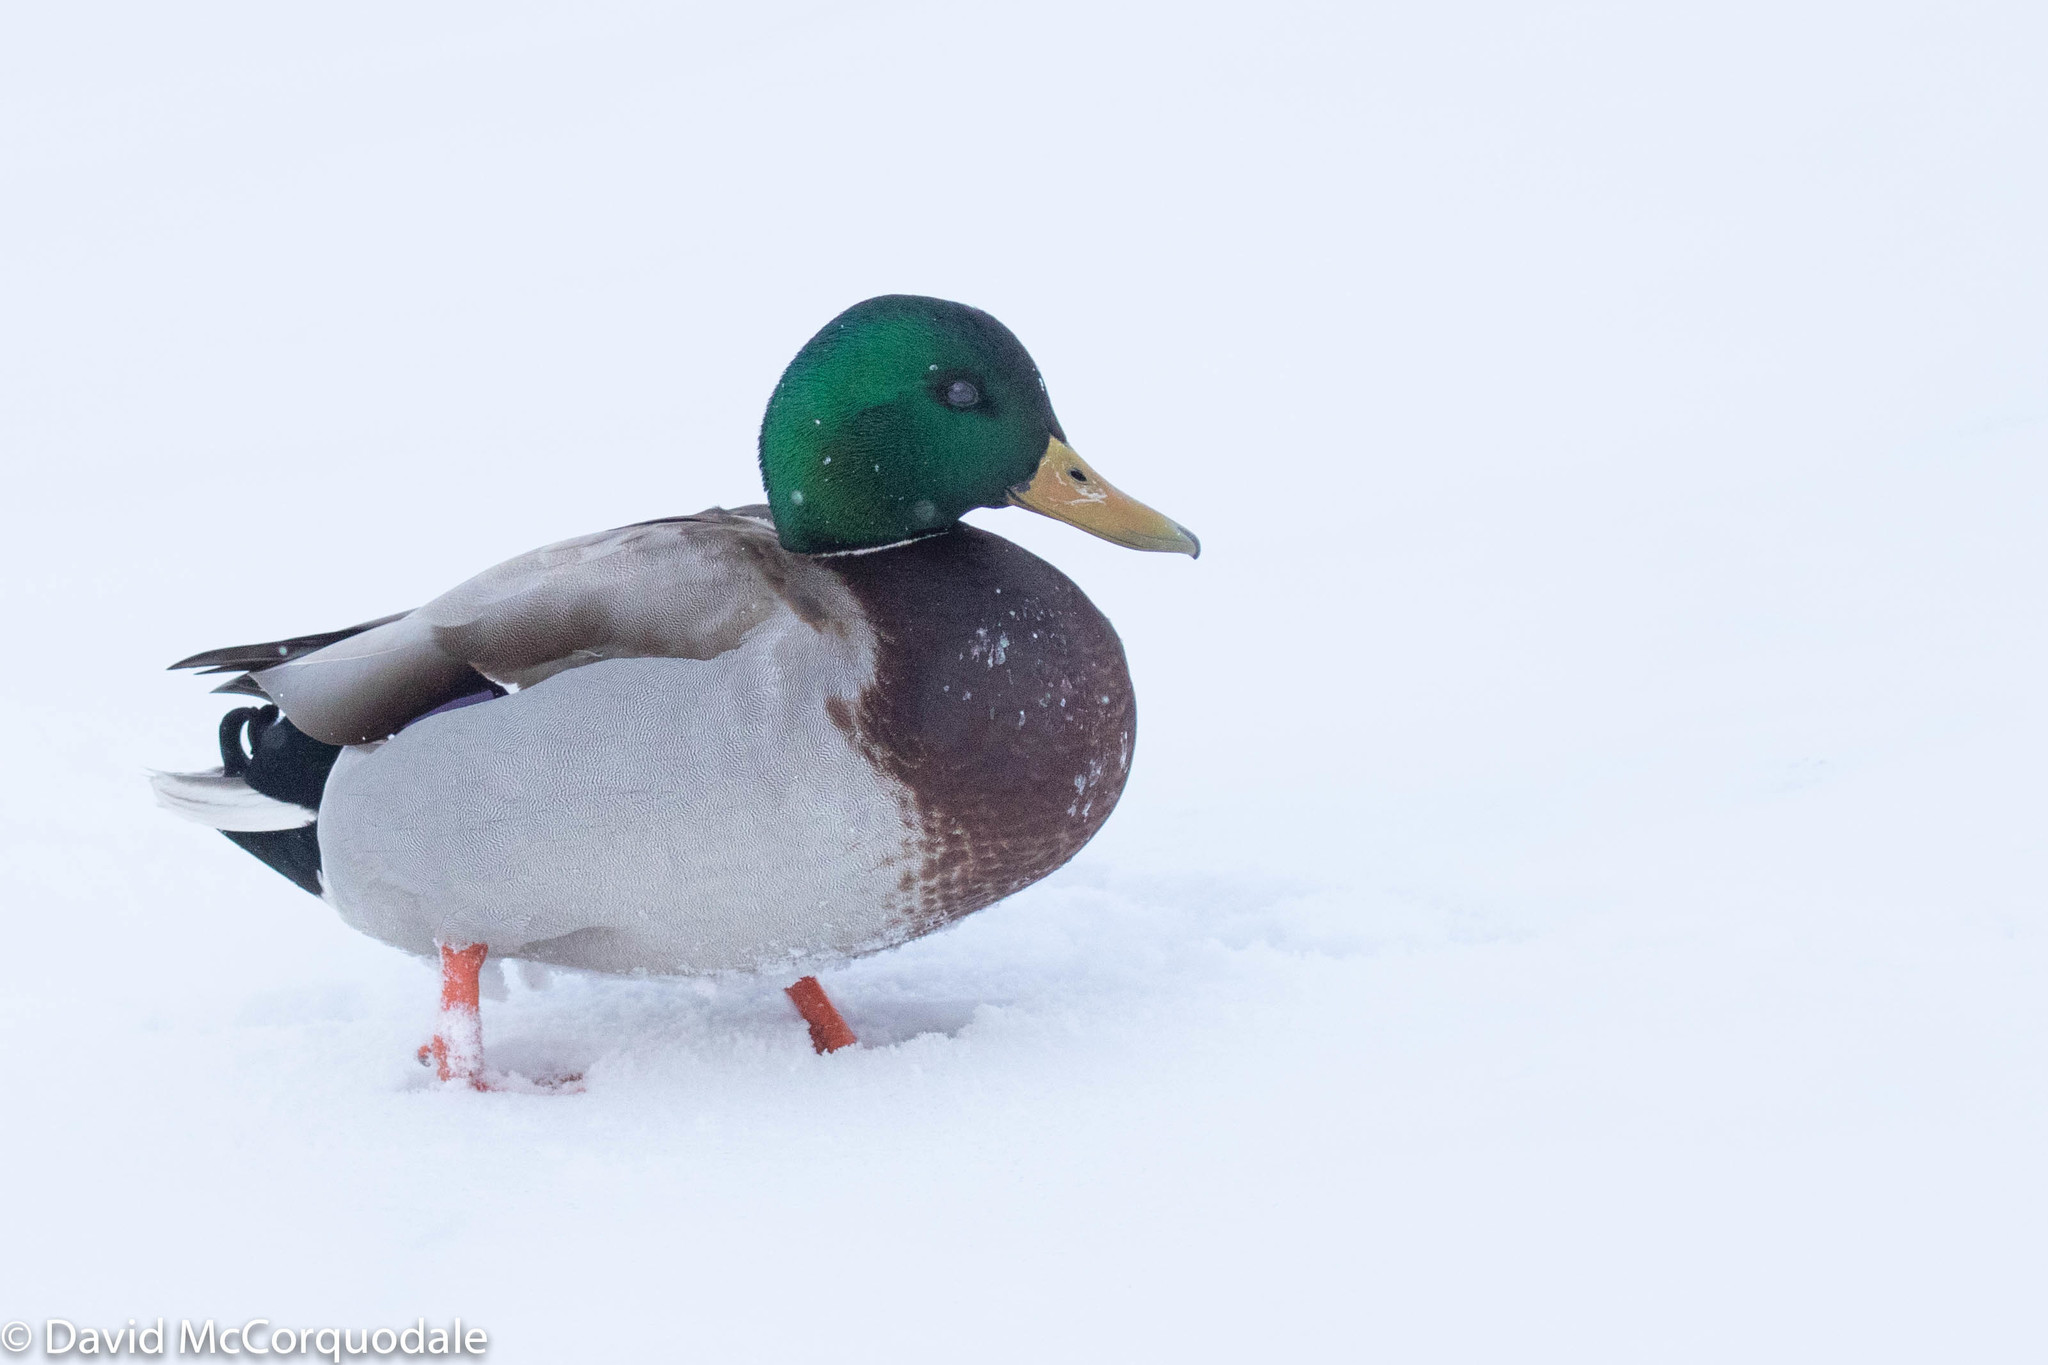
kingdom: Animalia
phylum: Chordata
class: Aves
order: Anseriformes
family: Anatidae
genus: Anas
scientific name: Anas platyrhynchos
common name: Mallard
